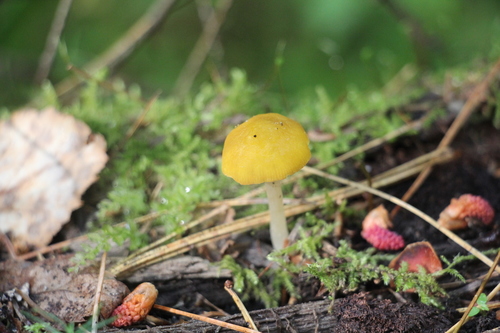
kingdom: Fungi
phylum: Basidiomycota
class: Agaricomycetes
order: Agaricales
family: Pluteaceae
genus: Pluteus
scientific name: Pluteus chrysophlebius
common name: Yellow deer mushroom
